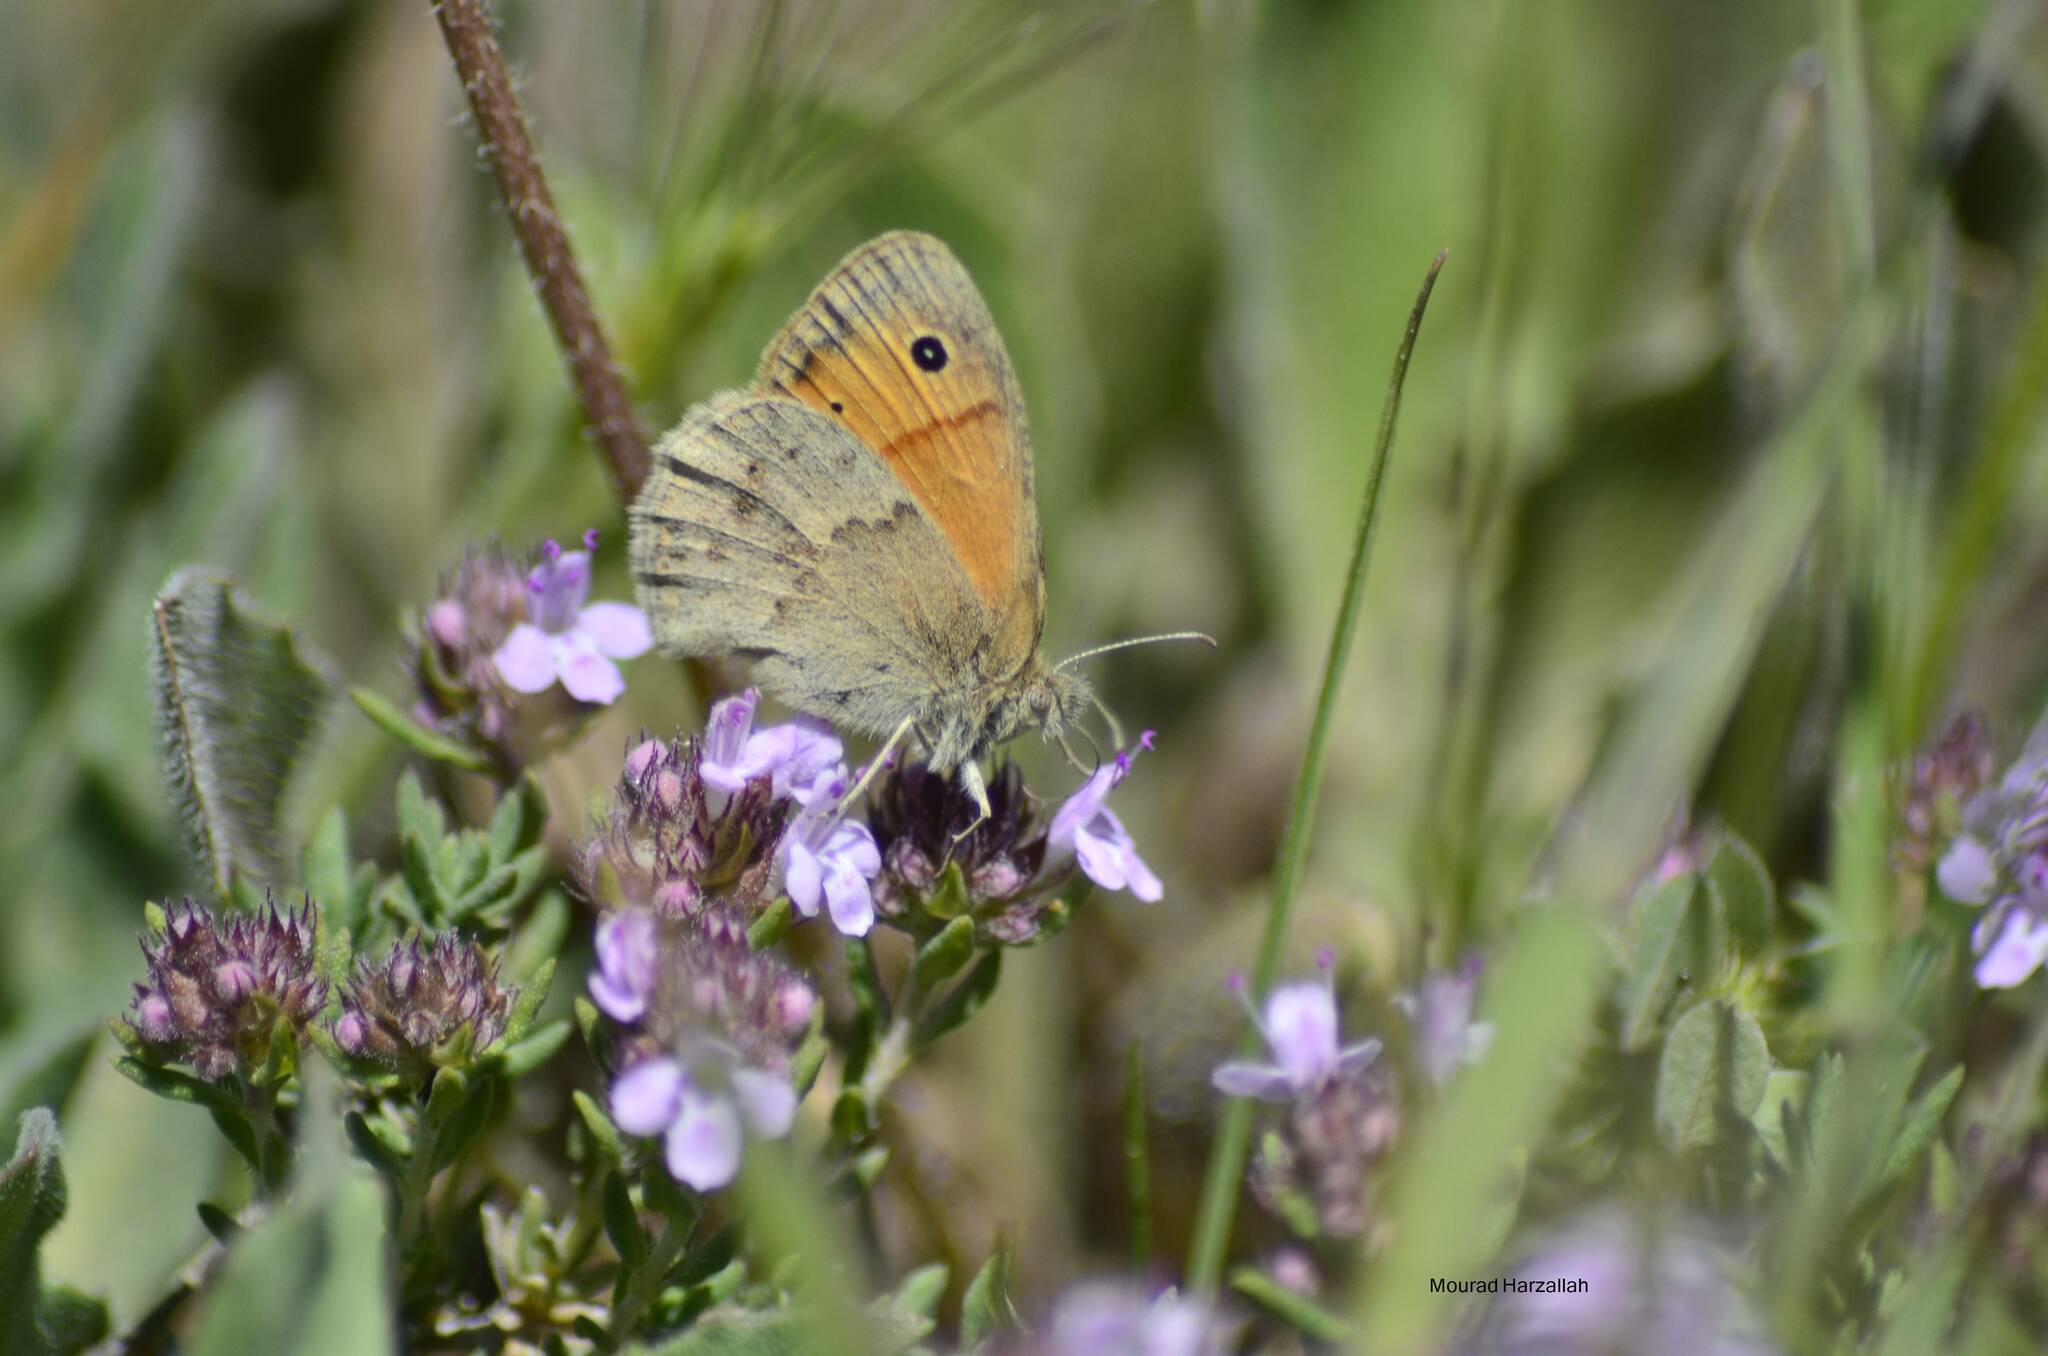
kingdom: Animalia
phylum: Arthropoda
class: Insecta
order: Lepidoptera
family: Nymphalidae
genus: Coenonympha
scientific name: Coenonympha pamphilus
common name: Small heath
